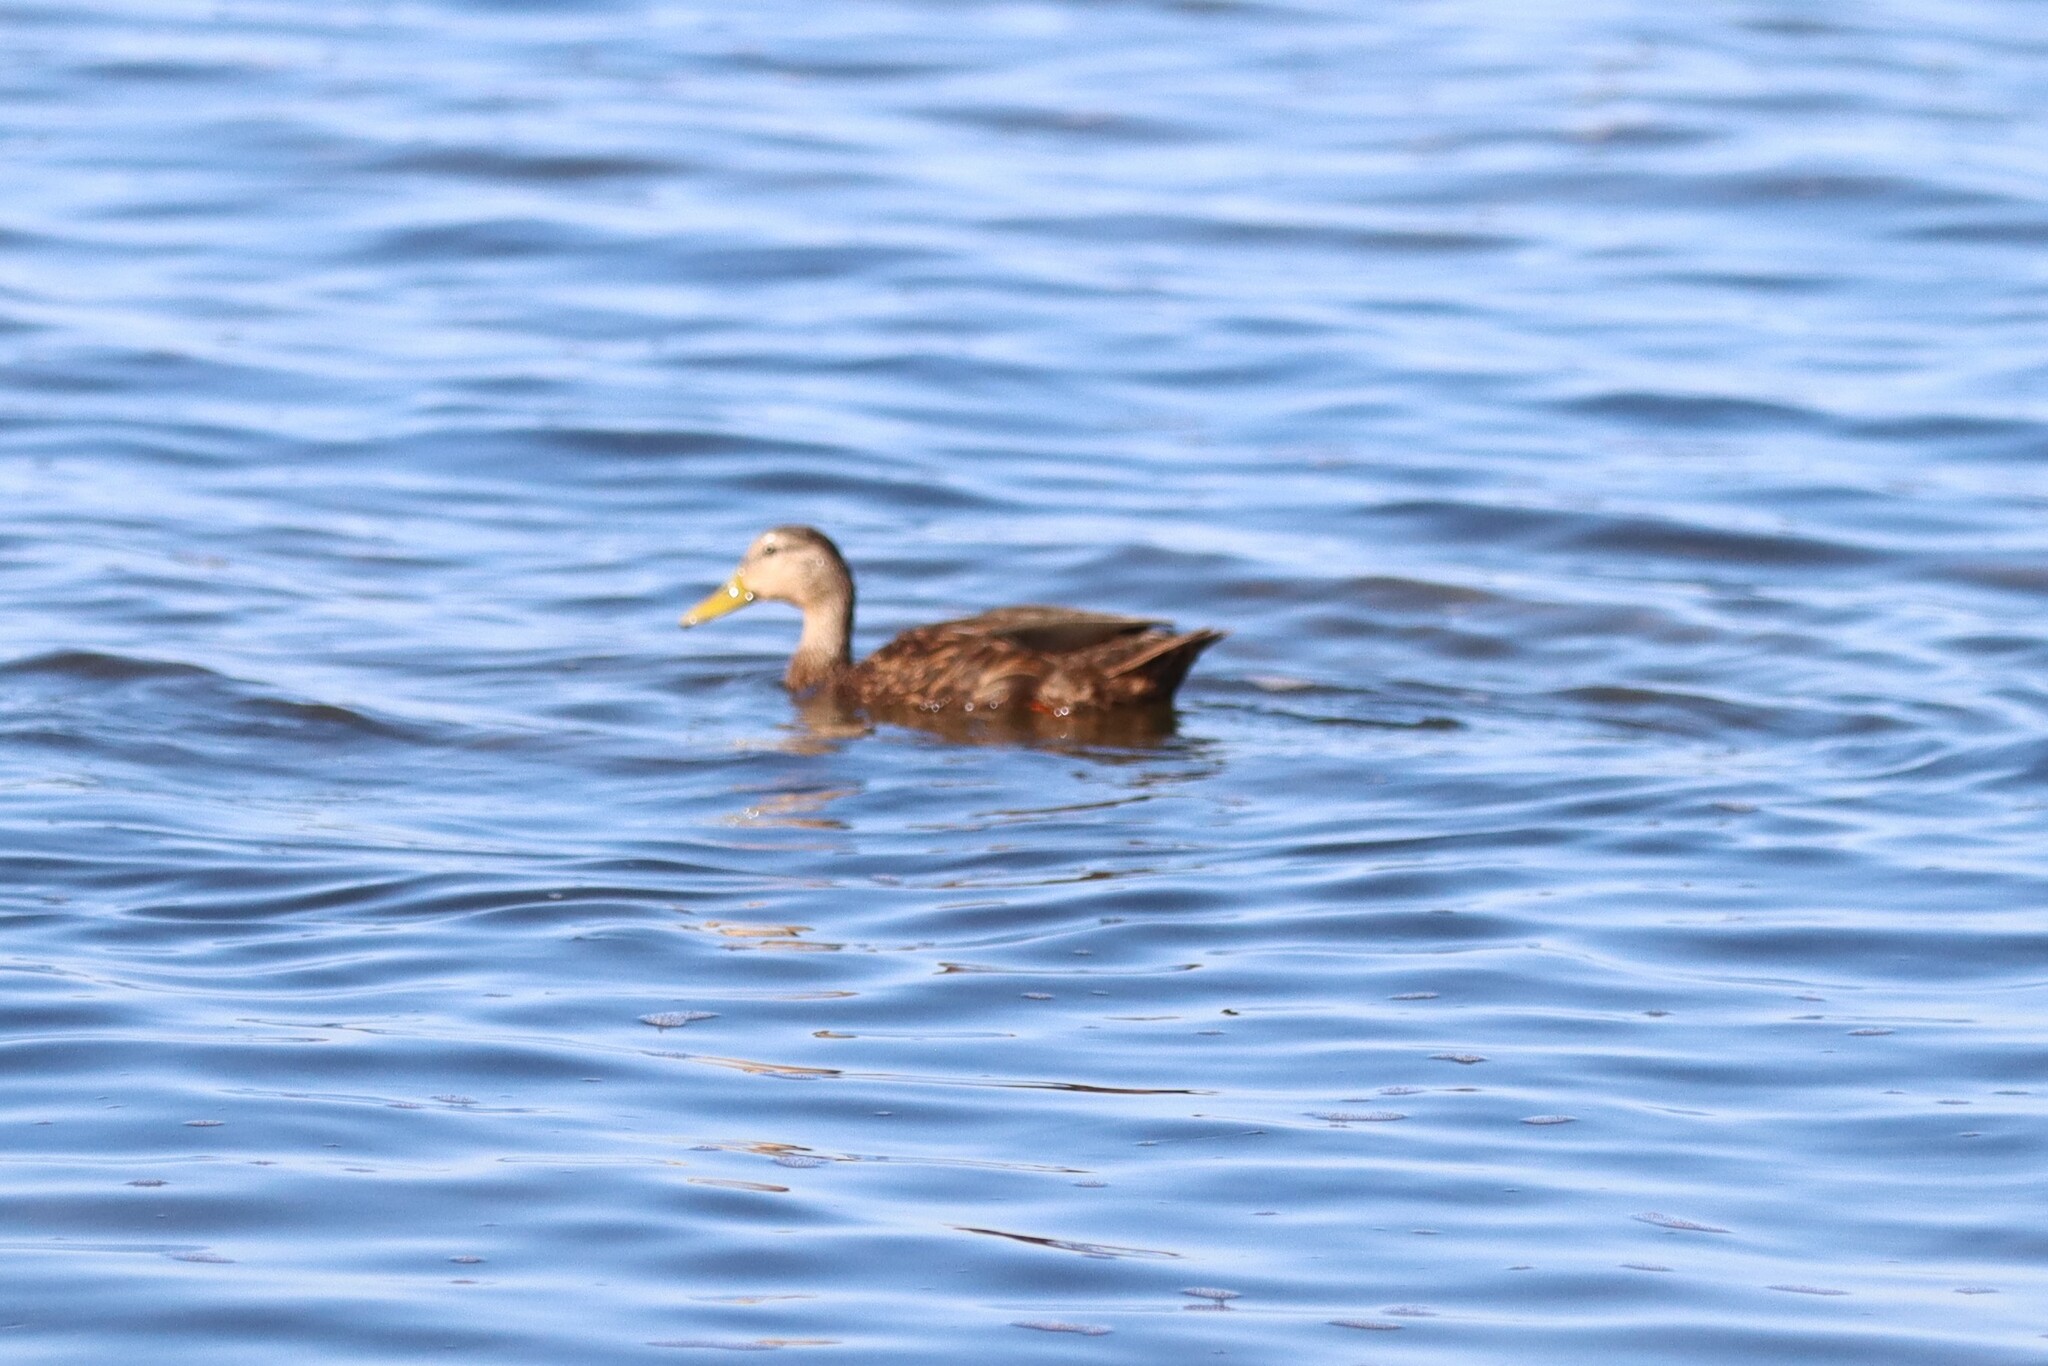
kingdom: Animalia
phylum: Chordata
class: Aves
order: Anseriformes
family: Anatidae
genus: Anas
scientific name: Anas fulvigula
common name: Mottled duck
